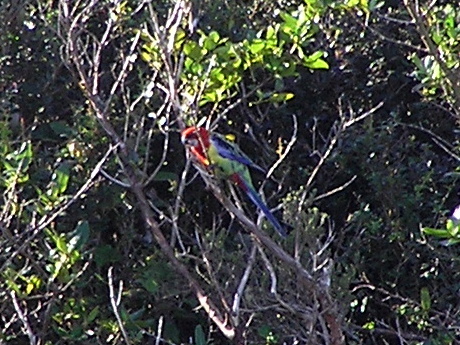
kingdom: Animalia
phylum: Chordata
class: Aves
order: Psittaciformes
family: Psittacidae
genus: Platycercus
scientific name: Platycercus eximius
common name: Eastern rosella
